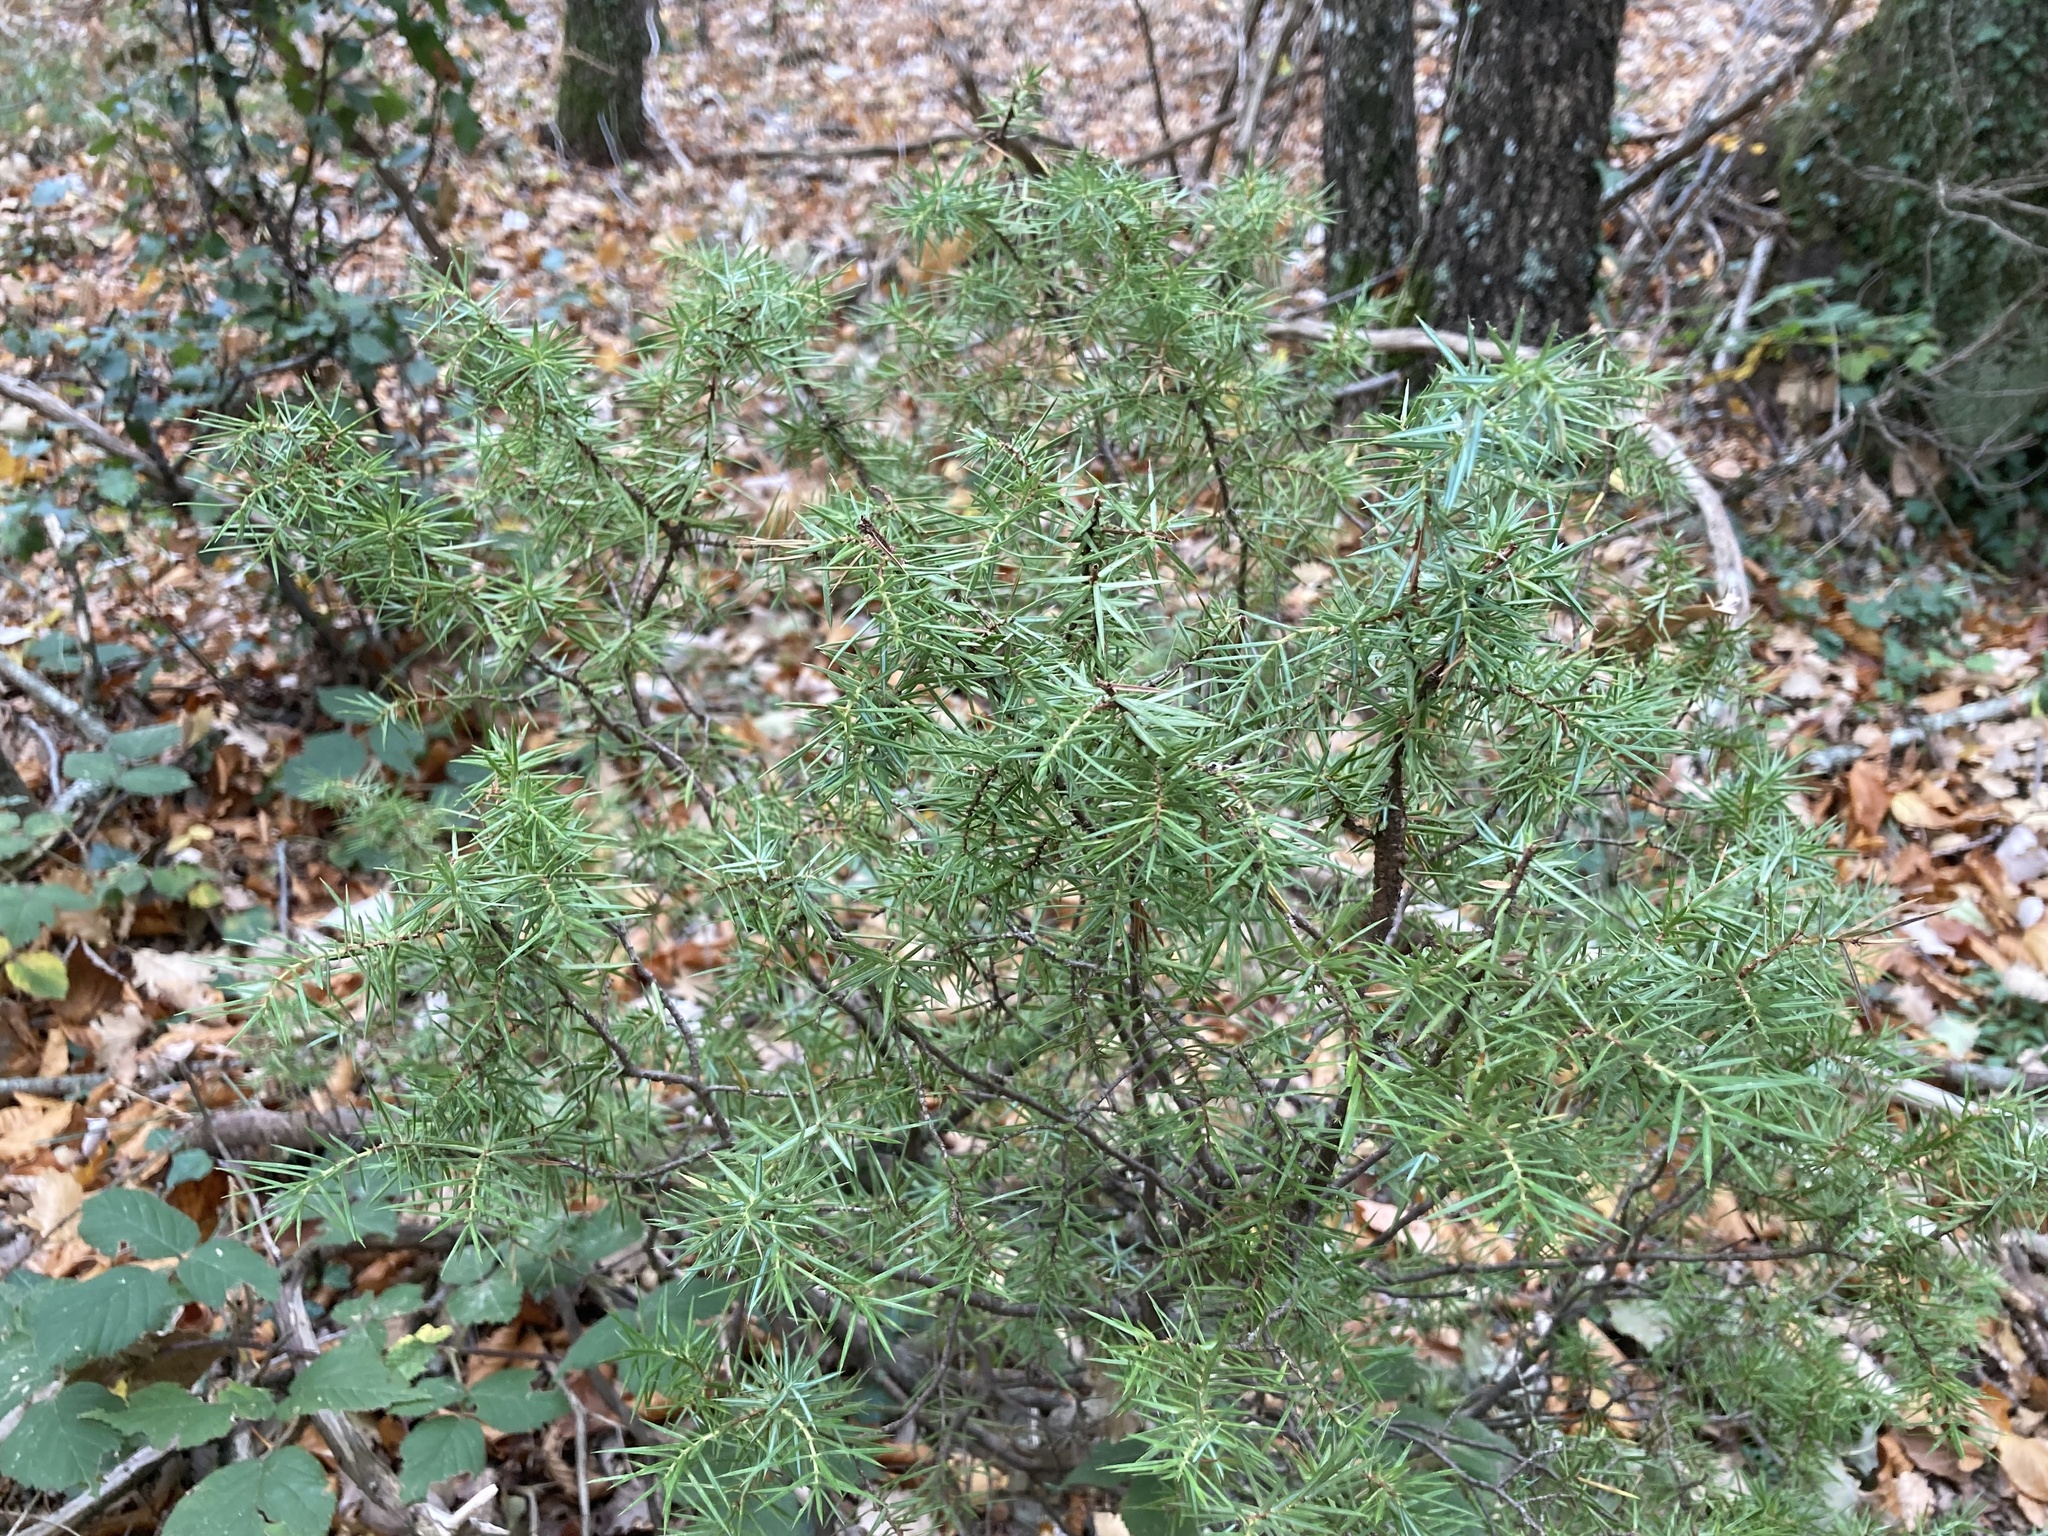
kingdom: Plantae
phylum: Tracheophyta
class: Pinopsida
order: Pinales
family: Cupressaceae
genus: Juniperus
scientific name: Juniperus communis
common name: Common juniper
